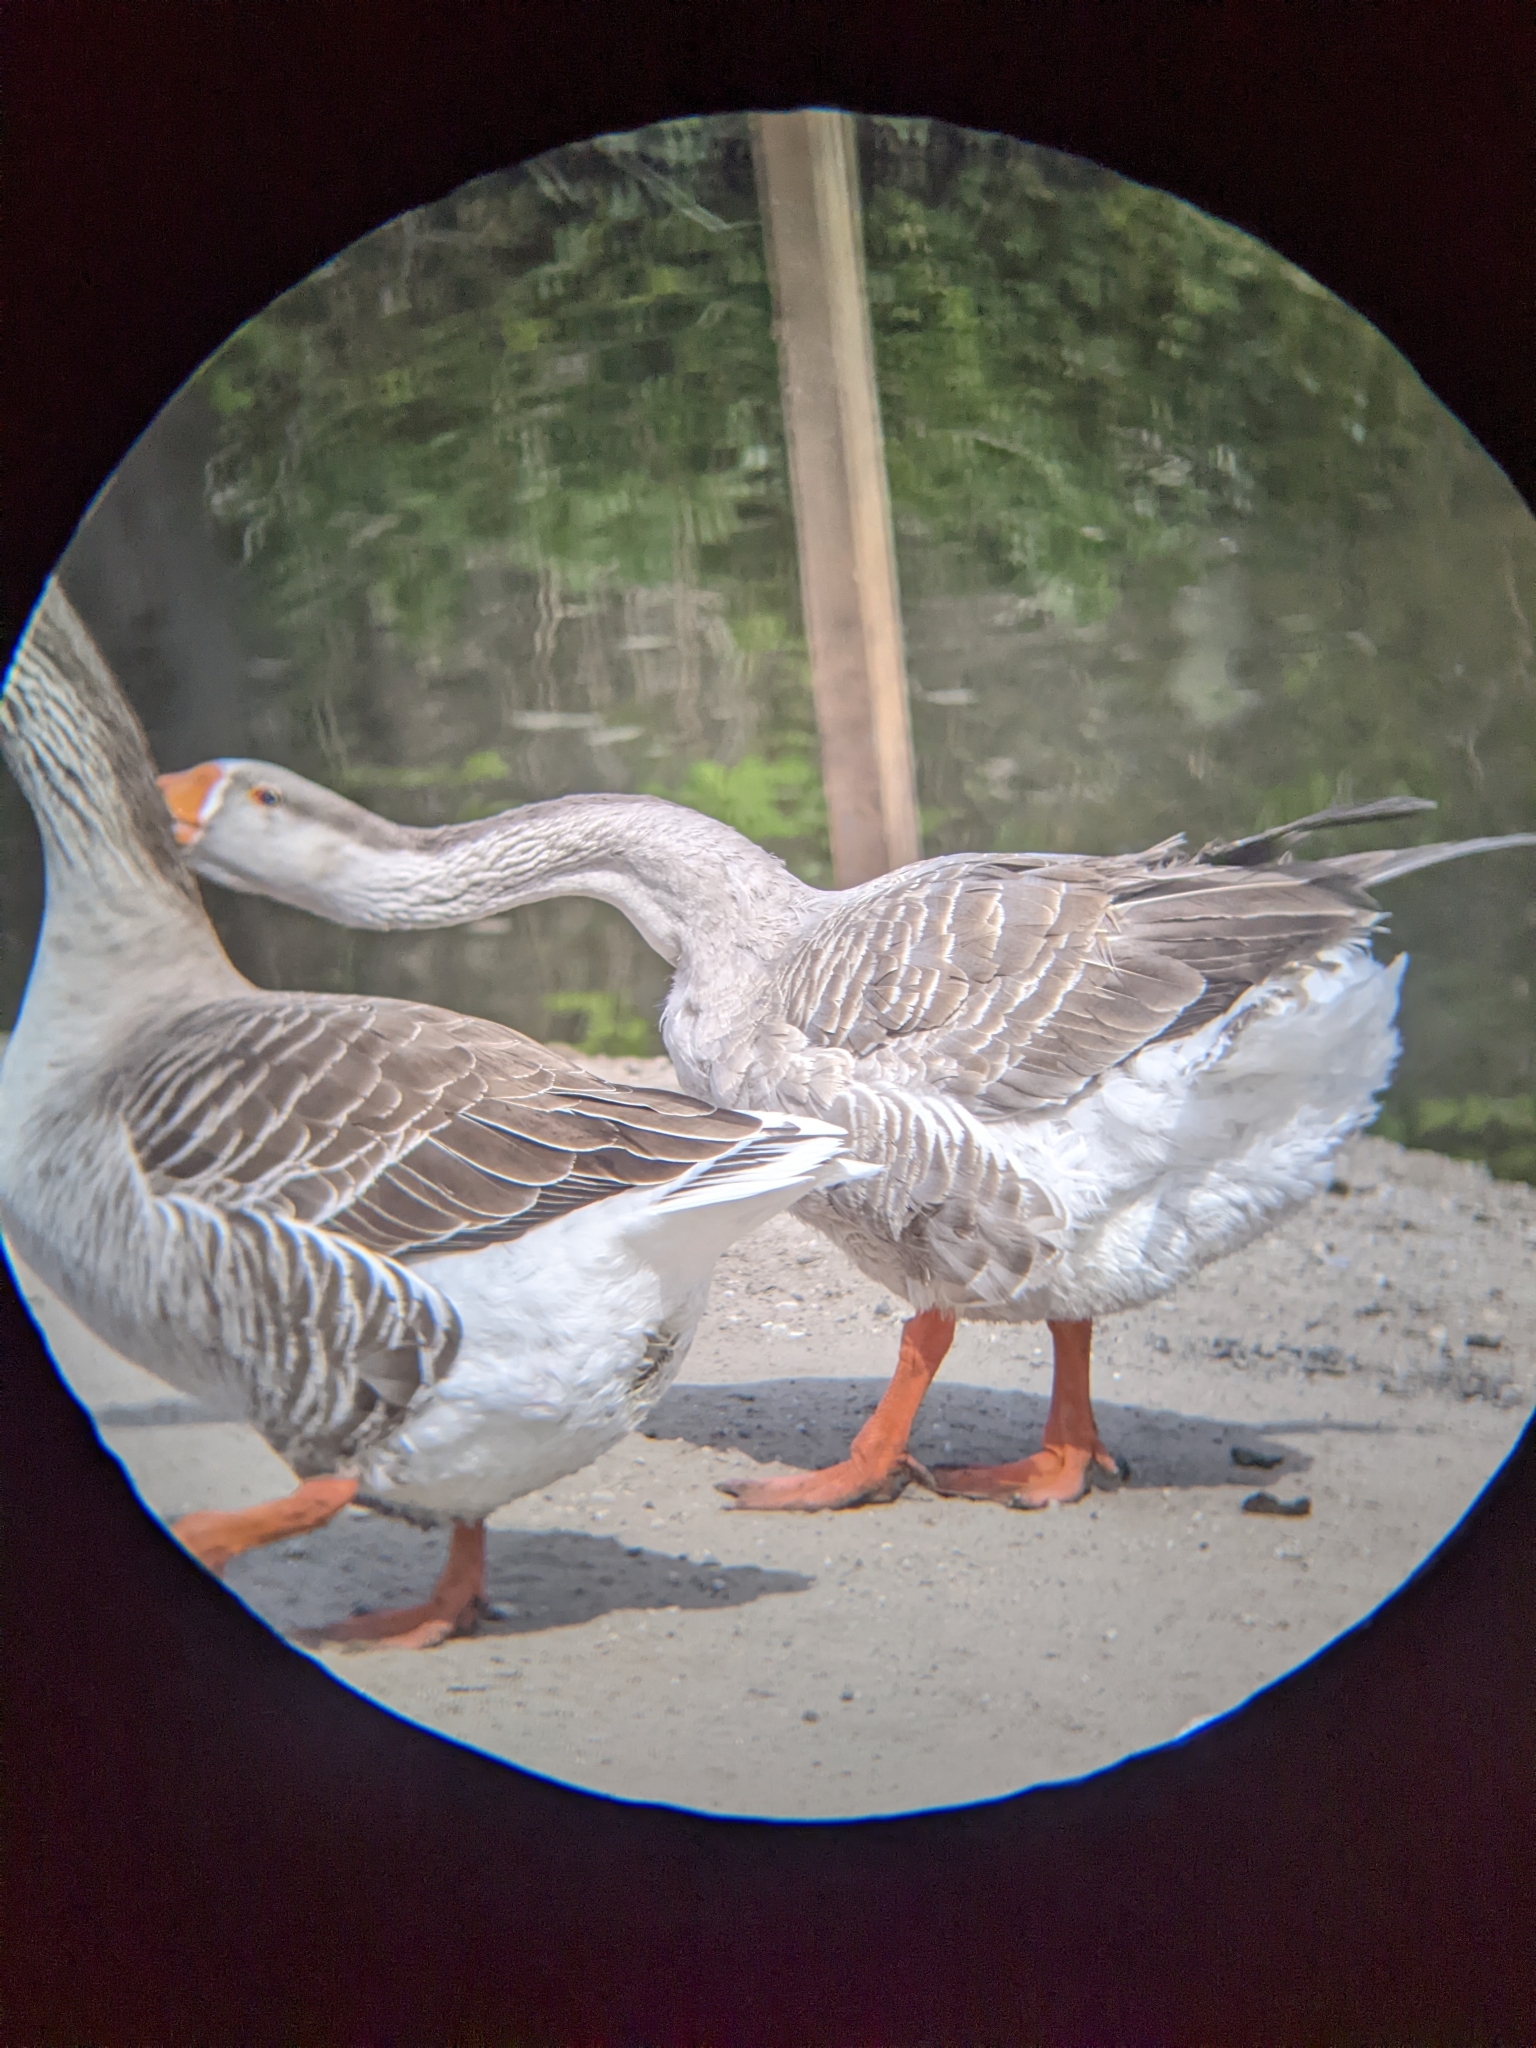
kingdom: Animalia
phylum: Chordata
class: Aves
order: Anseriformes
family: Anatidae
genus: Anser
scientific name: Anser anser
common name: Greylag goose
